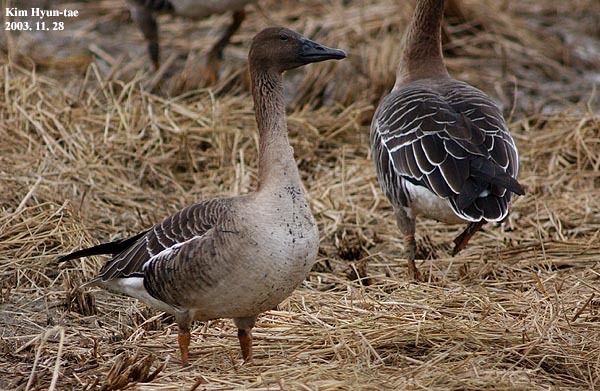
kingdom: Animalia
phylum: Chordata
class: Aves
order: Anseriformes
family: Anatidae
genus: Anser
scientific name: Anser serrirostris
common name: Tundra bean goose
